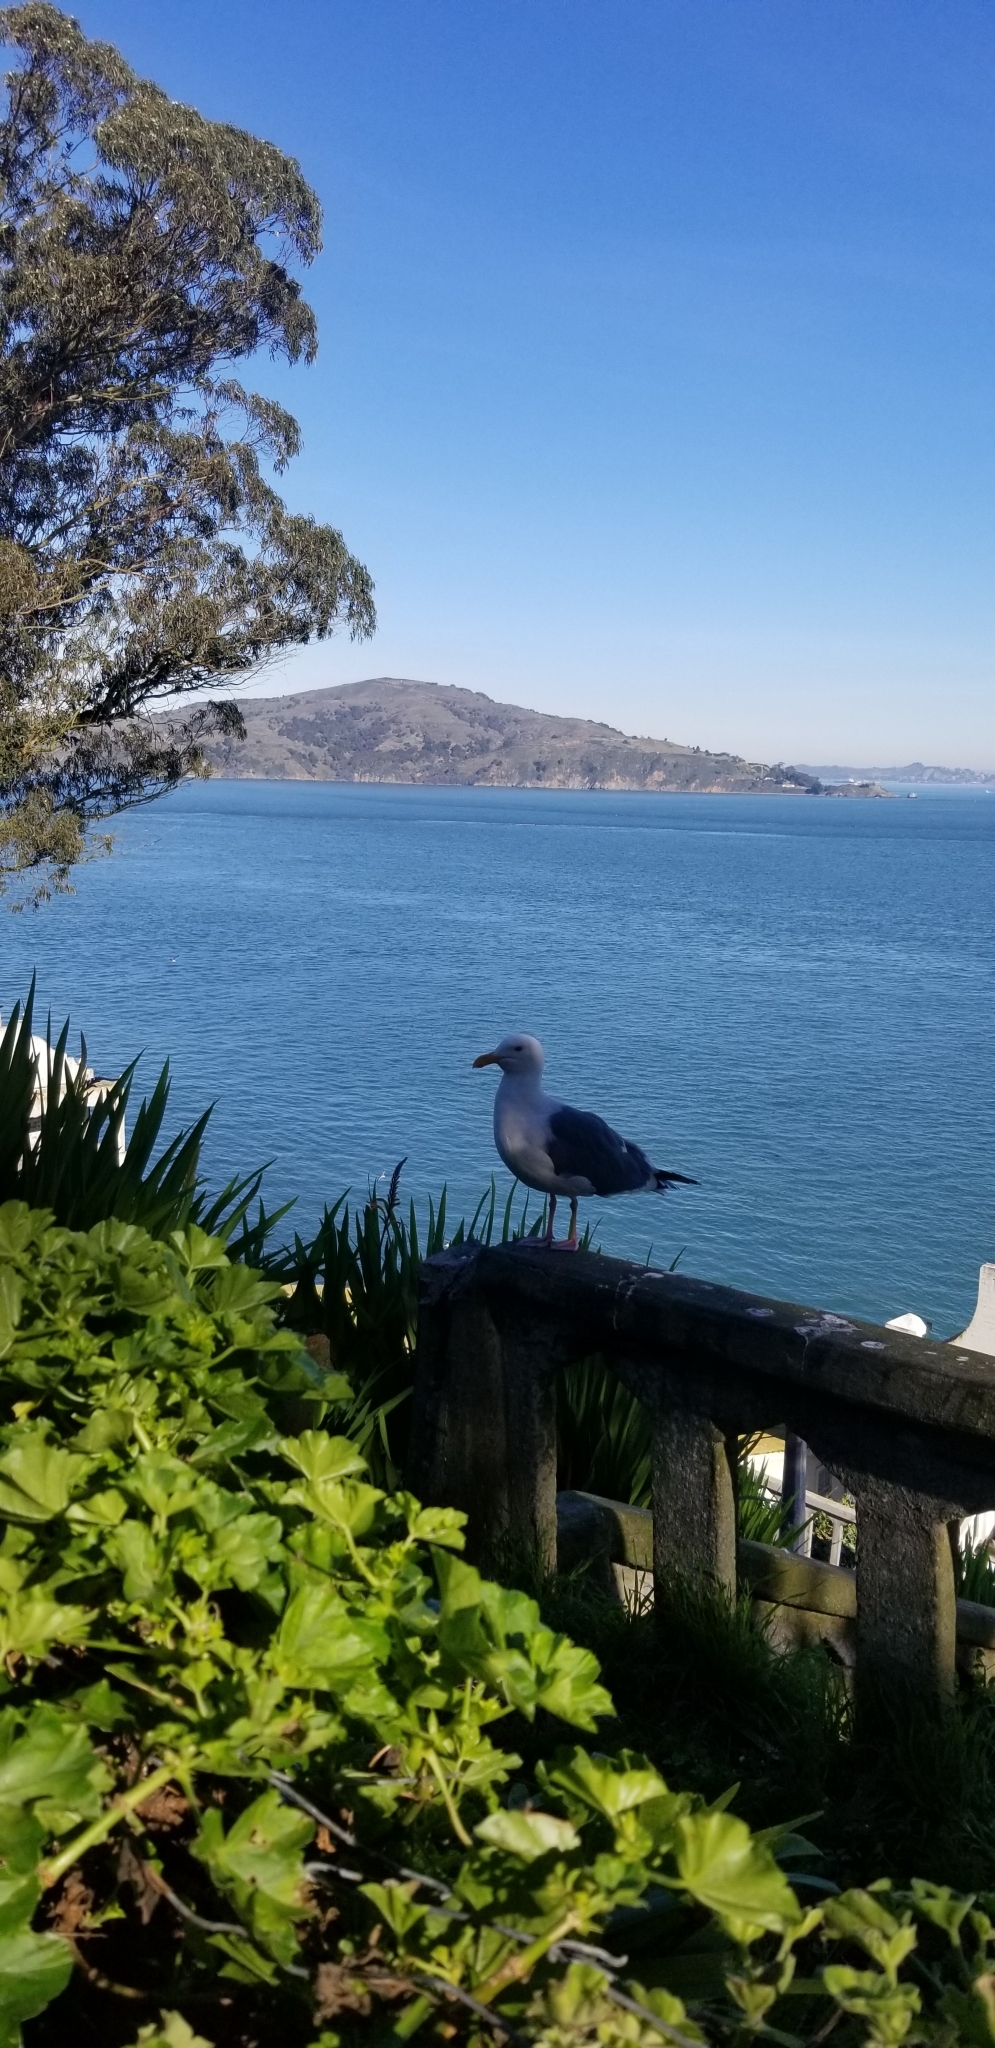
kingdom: Animalia
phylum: Chordata
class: Aves
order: Charadriiformes
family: Laridae
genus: Larus
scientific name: Larus occidentalis
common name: Western gull
